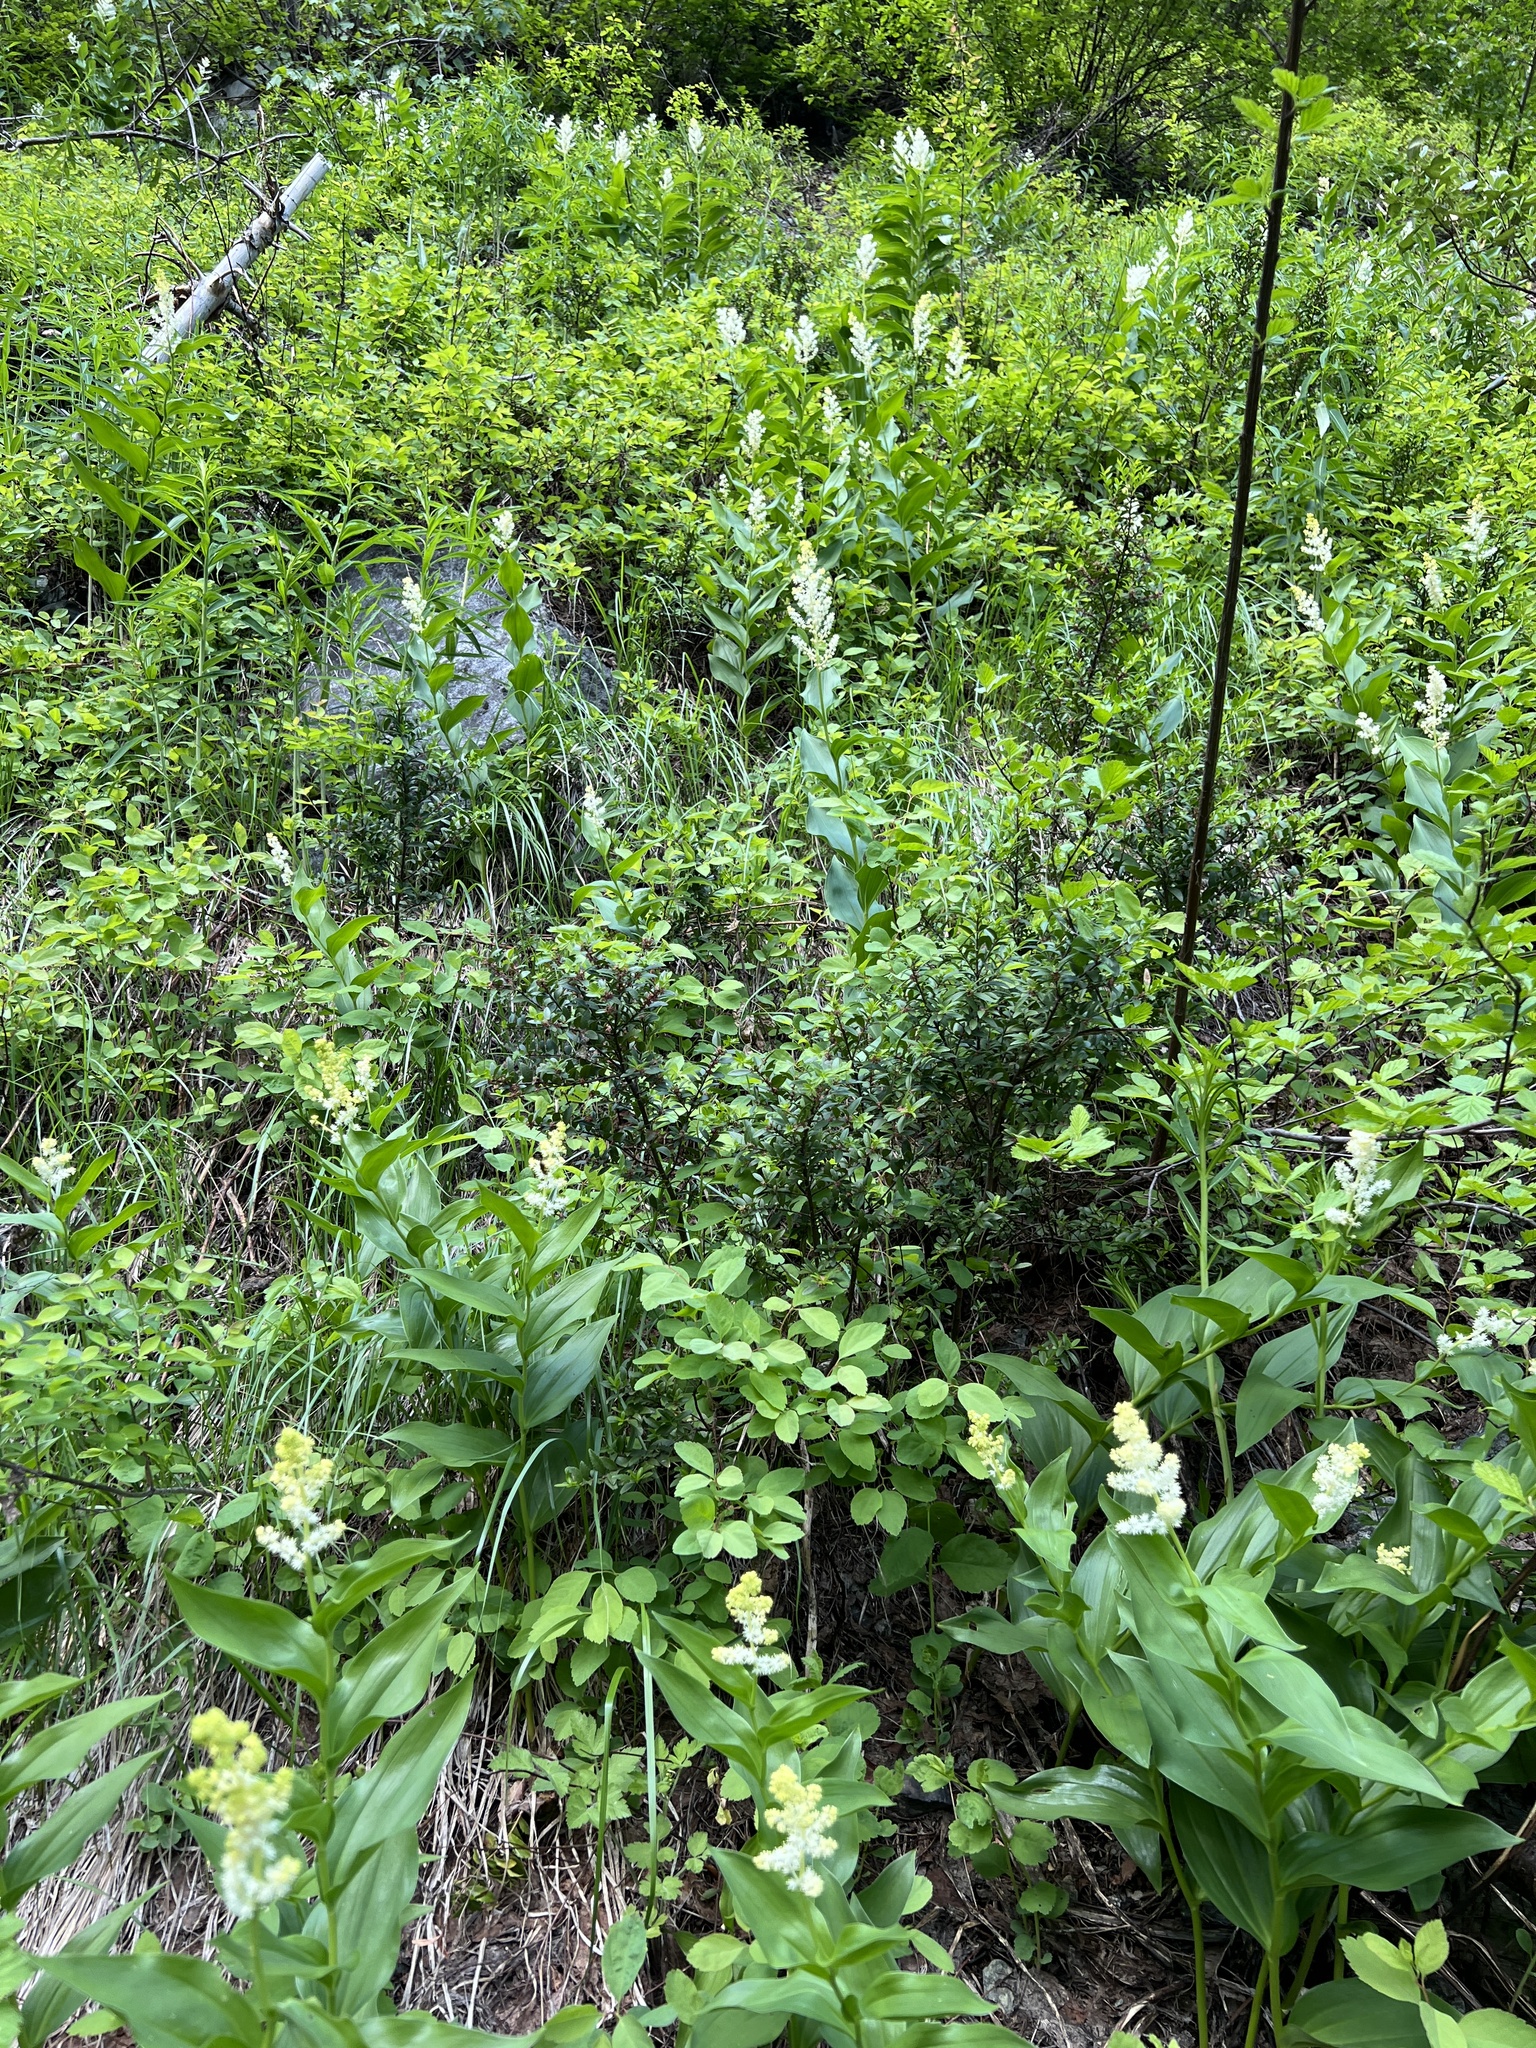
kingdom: Plantae
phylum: Tracheophyta
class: Liliopsida
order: Asparagales
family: Asparagaceae
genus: Maianthemum
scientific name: Maianthemum racemosum
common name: False spikenard
